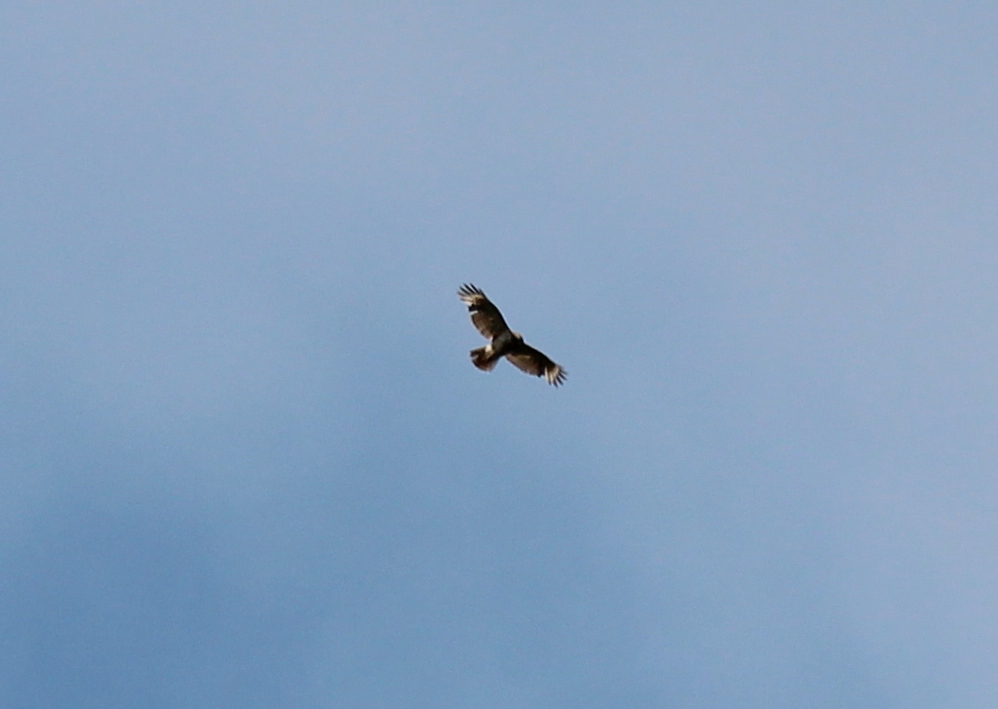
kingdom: Animalia
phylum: Chordata
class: Aves
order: Accipitriformes
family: Accipitridae
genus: Buteo
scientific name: Buteo lineatus
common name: Red-shouldered hawk
